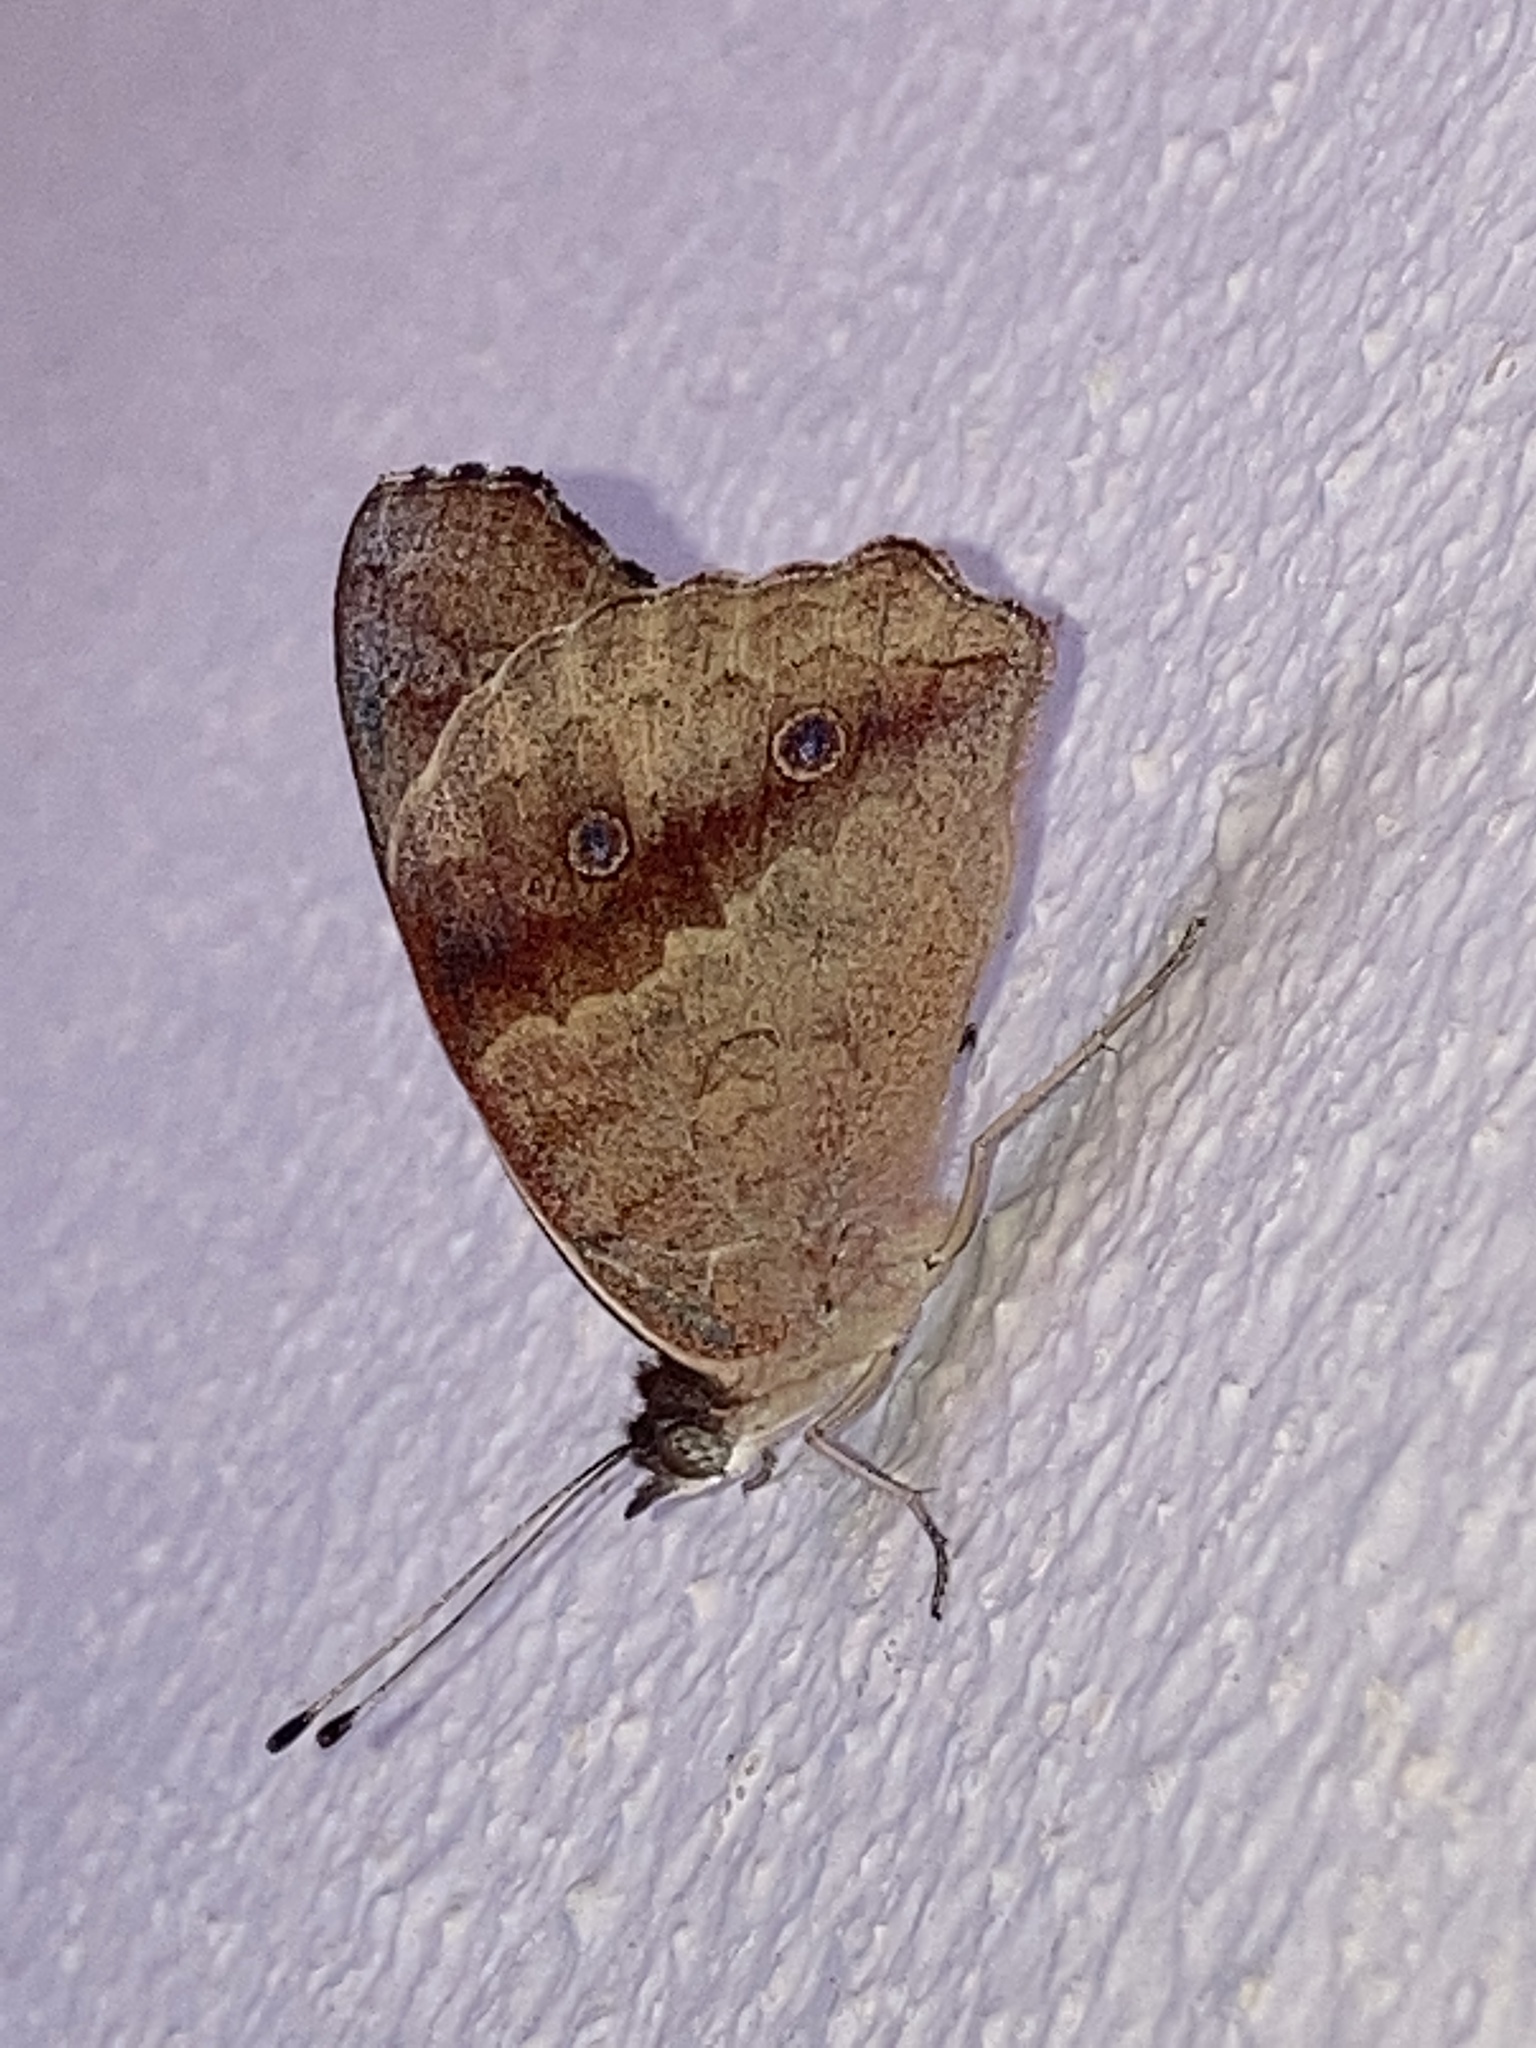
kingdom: Animalia
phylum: Arthropoda
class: Insecta
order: Lepidoptera
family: Nymphalidae
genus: Junonia
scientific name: Junonia coenia
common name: Common buckeye
